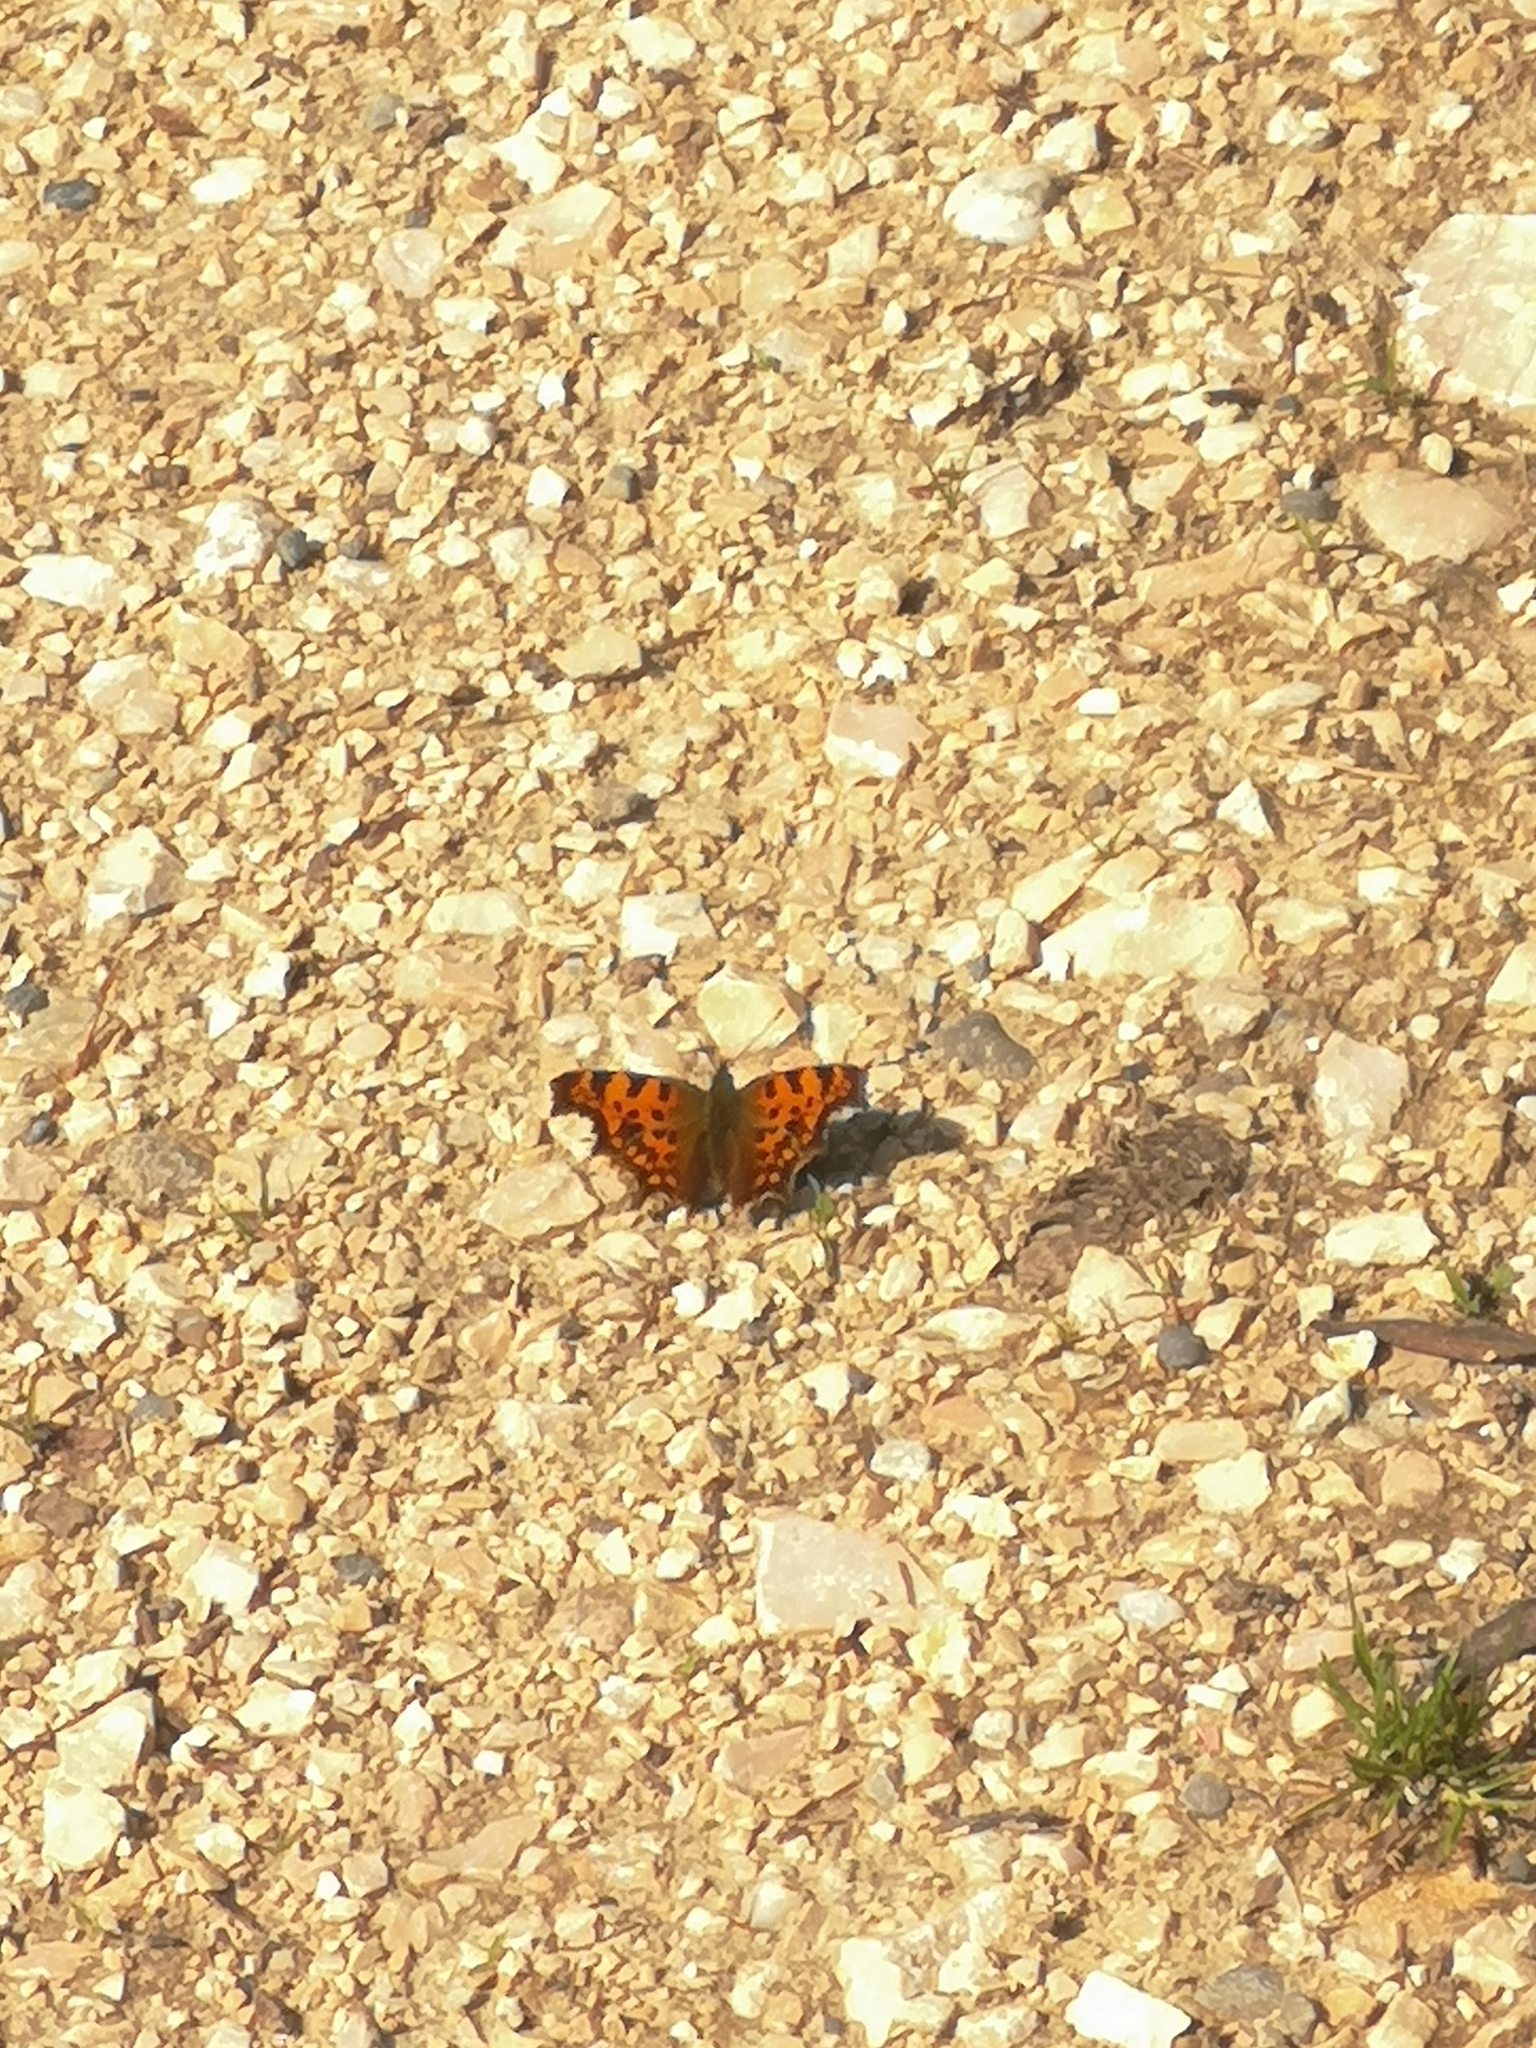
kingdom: Animalia
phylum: Arthropoda
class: Insecta
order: Lepidoptera
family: Nymphalidae
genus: Polygonia
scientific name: Polygonia c-album
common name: Comma
